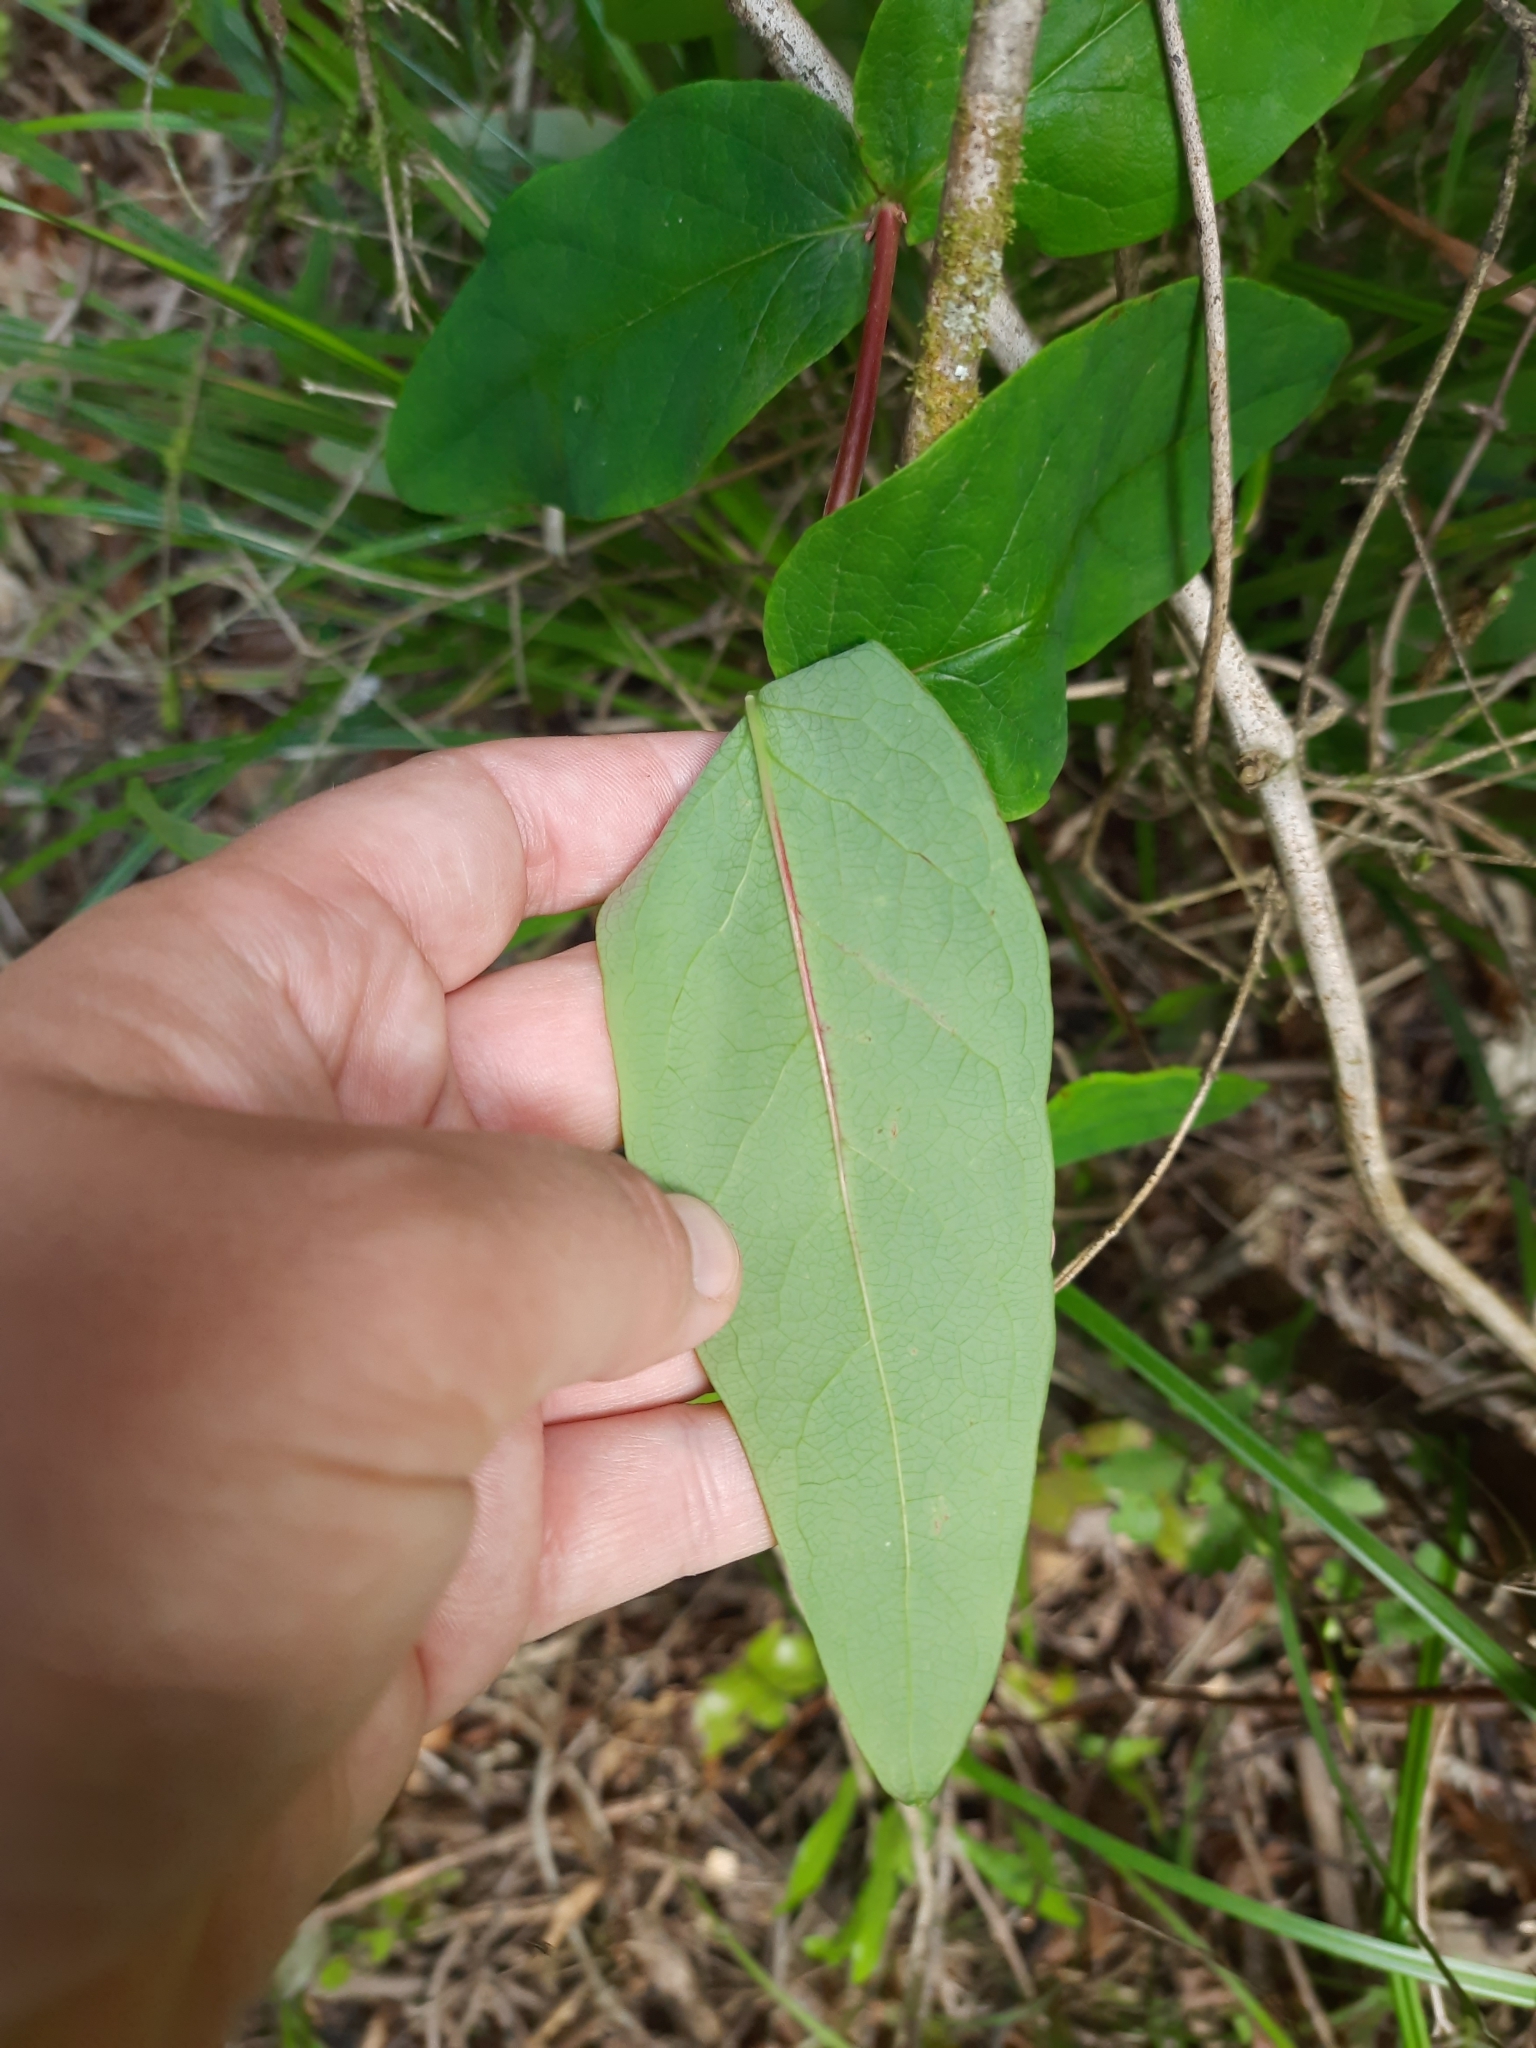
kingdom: Plantae
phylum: Tracheophyta
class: Magnoliopsida
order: Malpighiales
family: Hypericaceae
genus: Hypericum
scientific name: Hypericum androsaemum
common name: Sweet-amber
